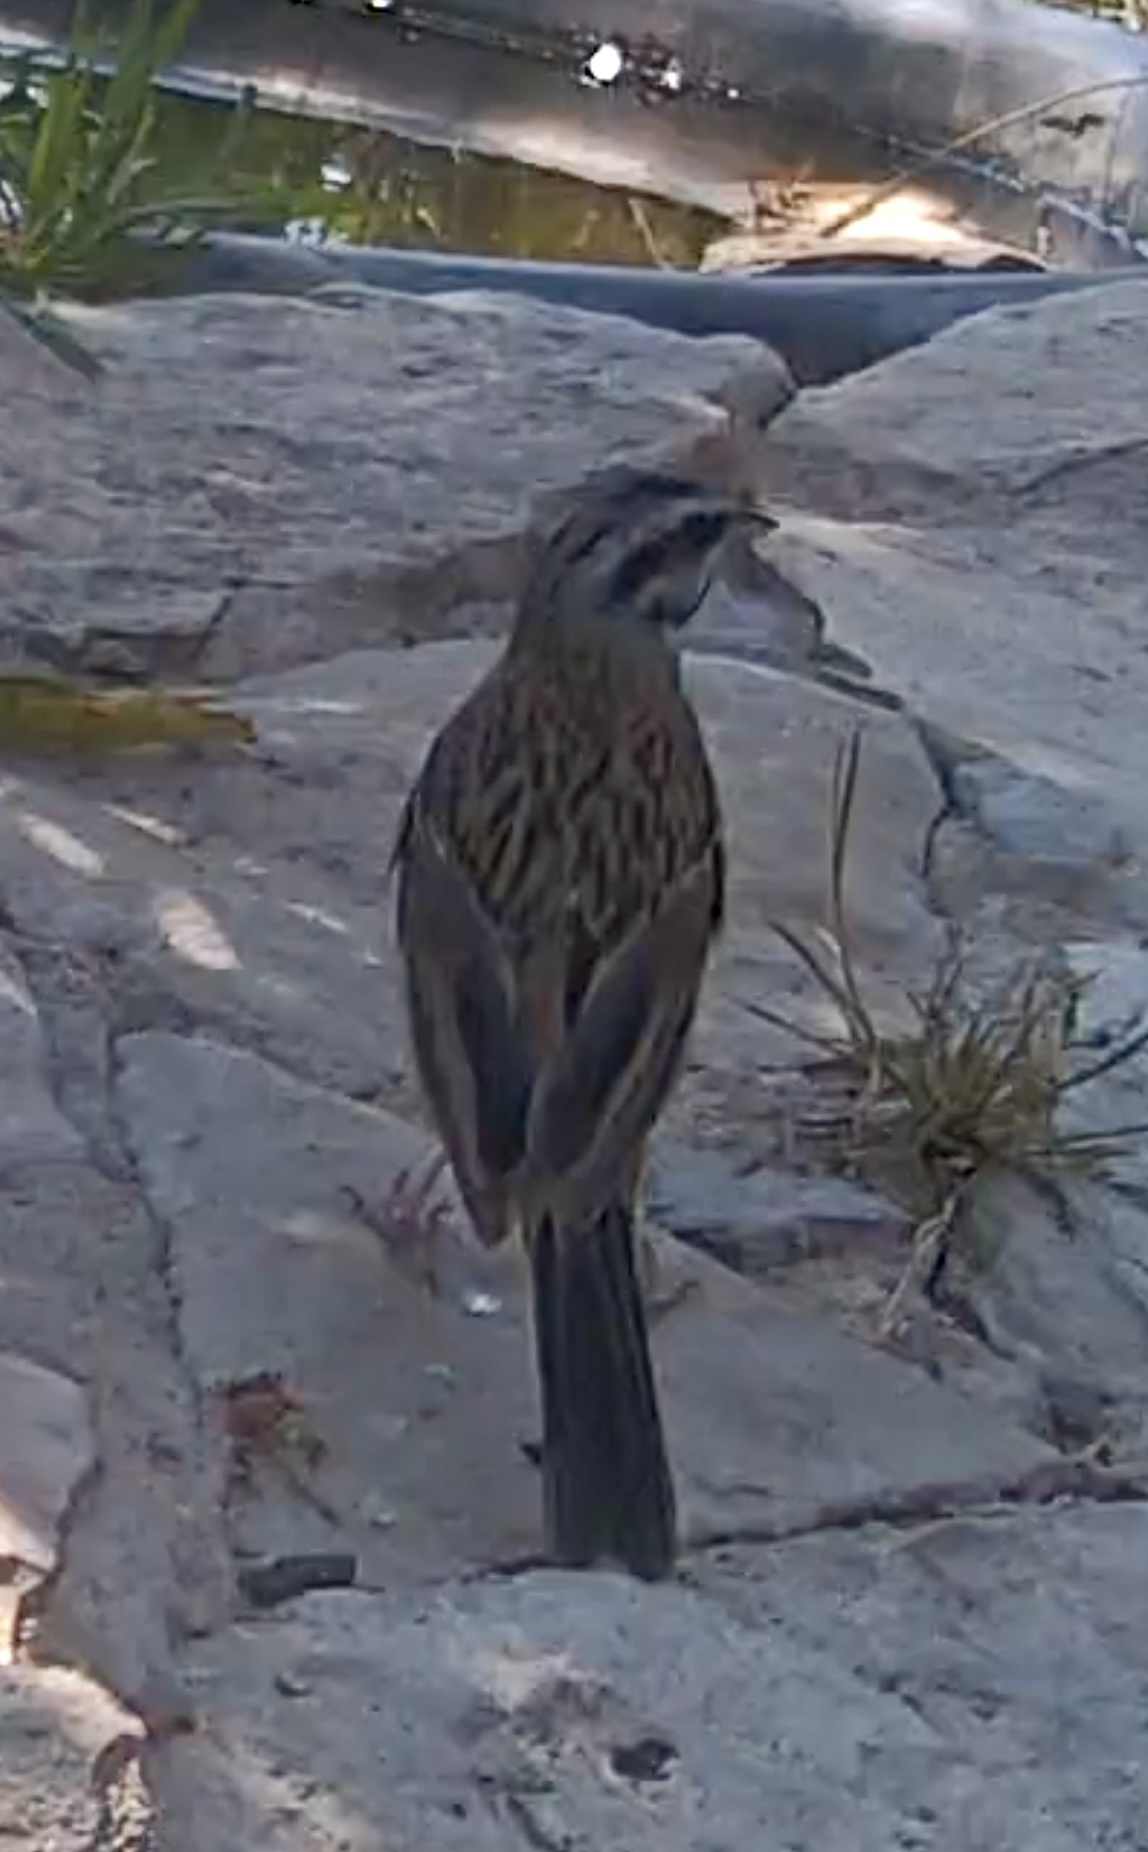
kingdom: Animalia
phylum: Chordata
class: Aves
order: Passeriformes
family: Emberizidae
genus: Emberiza
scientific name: Emberiza cia
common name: Rock bunting
